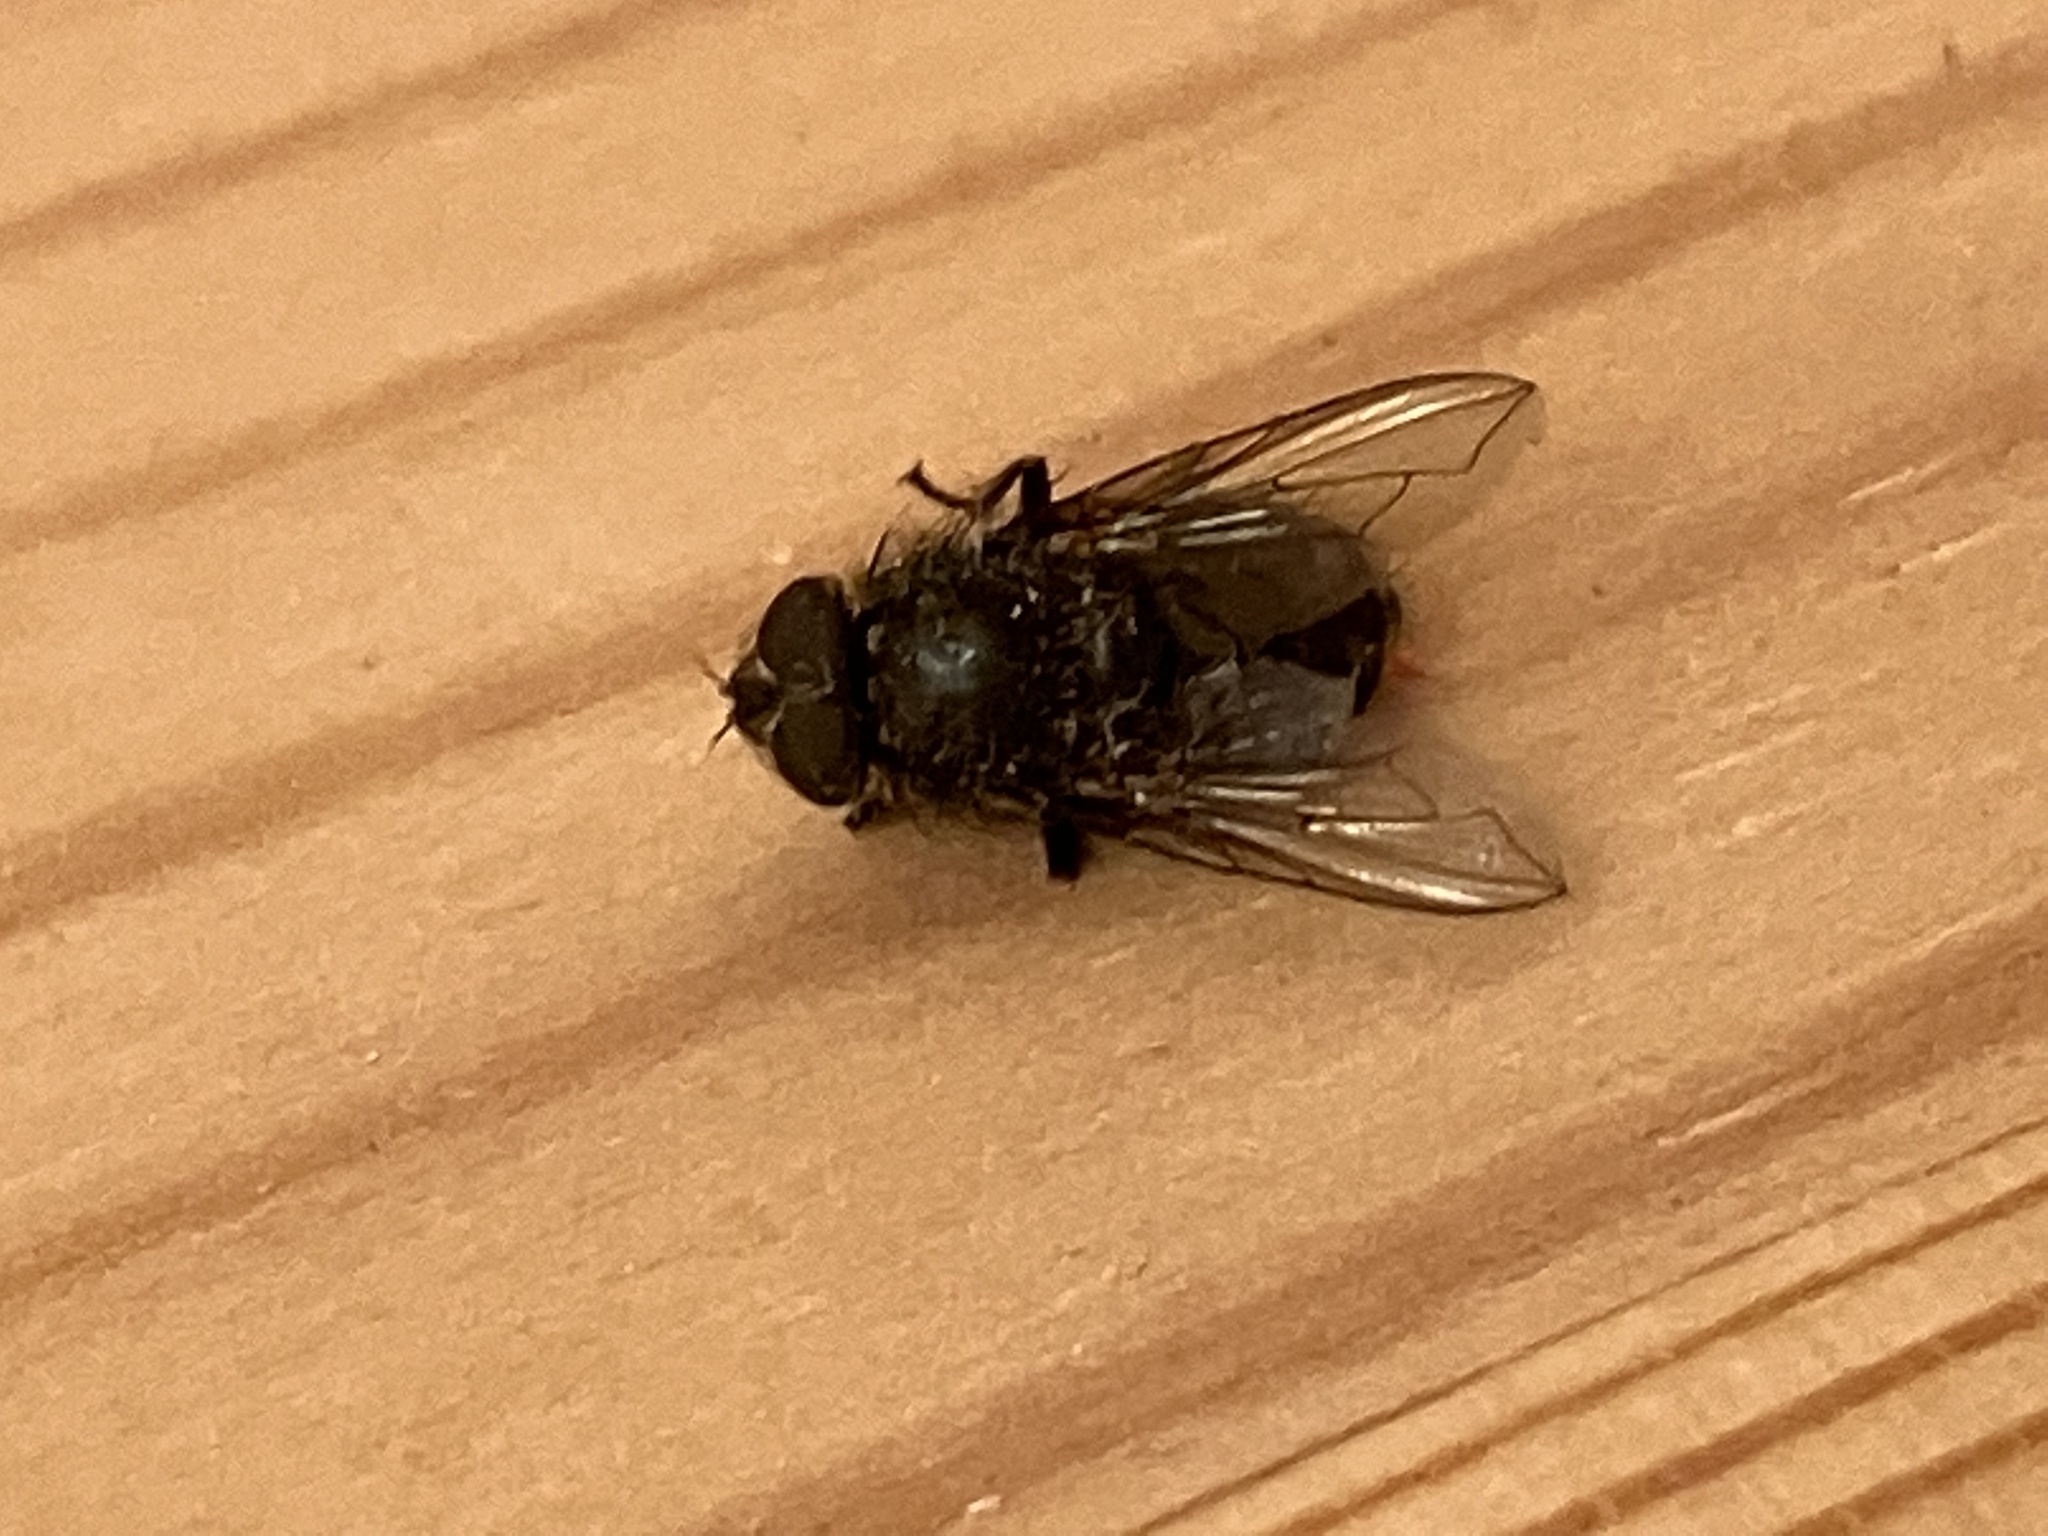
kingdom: Animalia
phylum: Arthropoda
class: Insecta
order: Diptera
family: Polleniidae
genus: Pollenia
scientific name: Pollenia
